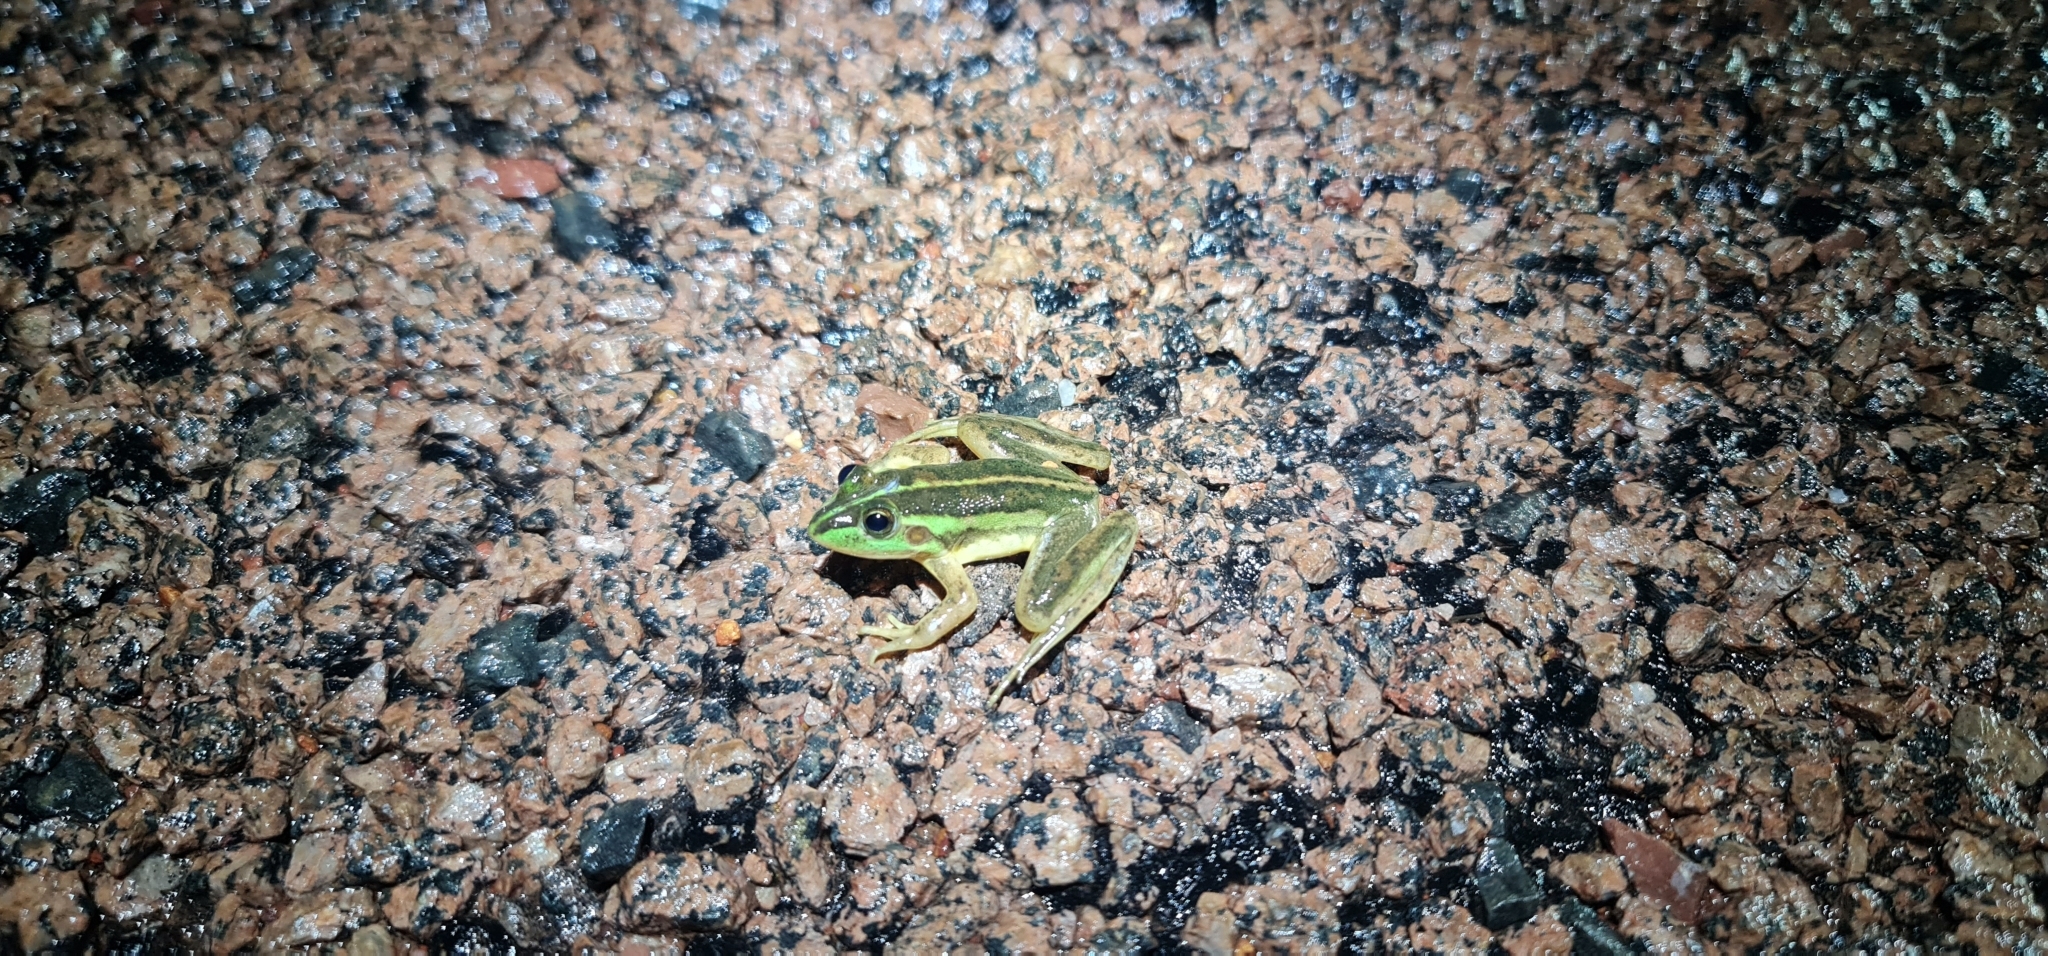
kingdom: Animalia
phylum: Chordata
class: Amphibia
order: Anura
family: Pelodryadidae
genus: Ranoidea
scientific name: Ranoidea dahlii
